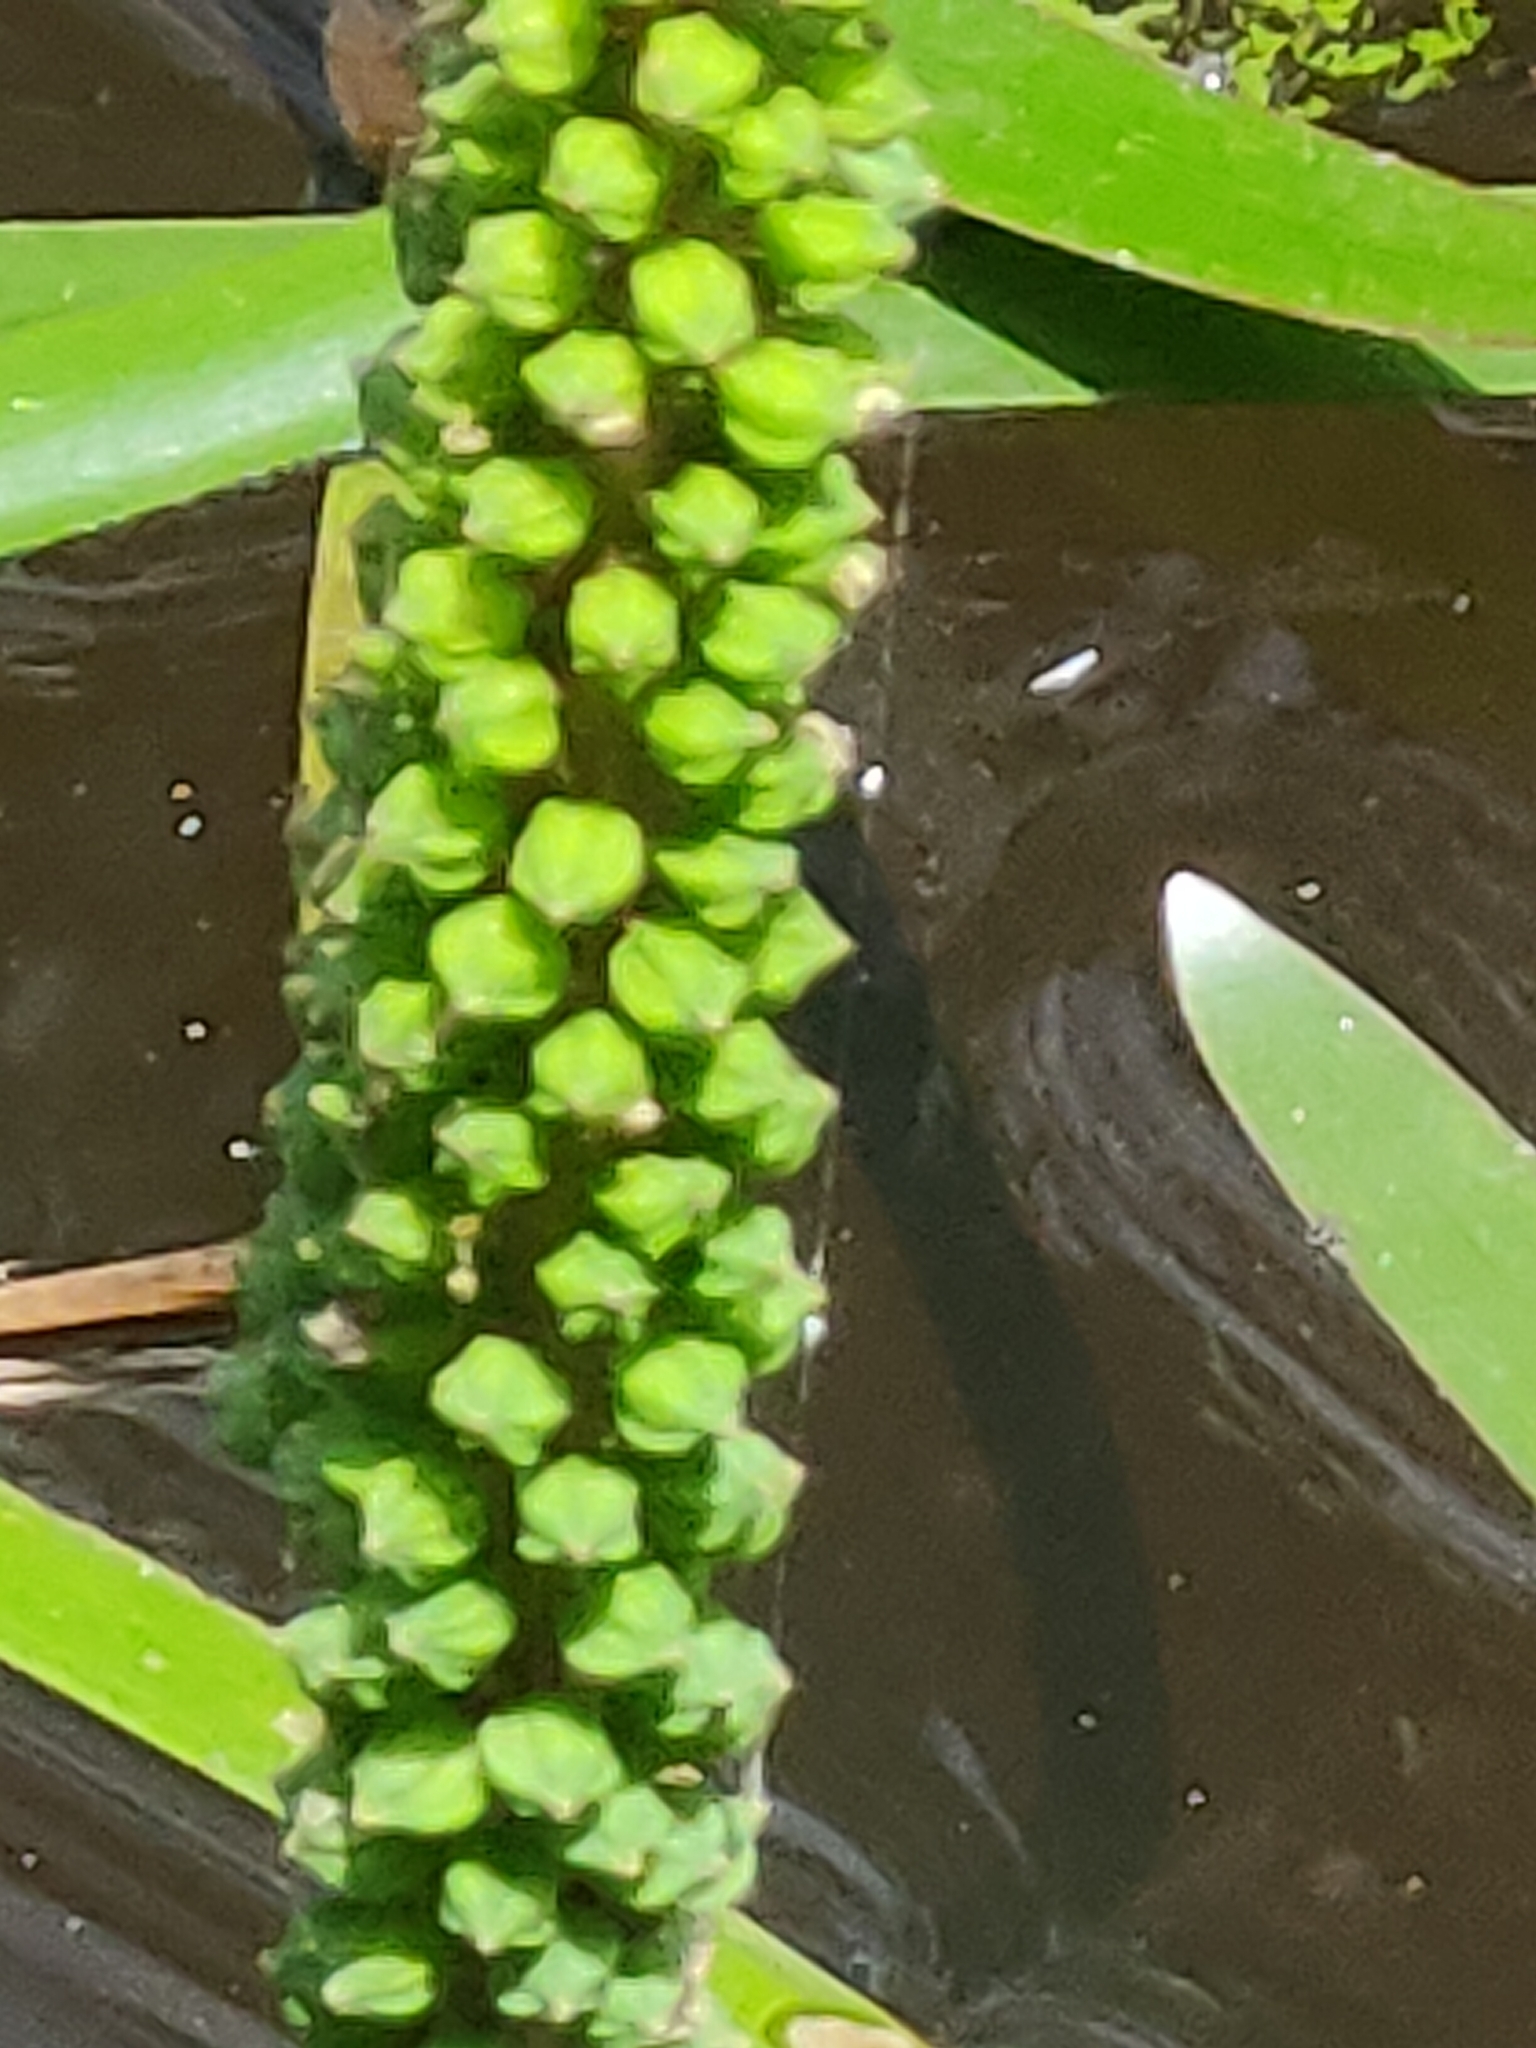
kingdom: Plantae
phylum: Tracheophyta
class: Liliopsida
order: Alismatales
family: Juncaginaceae
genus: Cycnogeton
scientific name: Cycnogeton multifructum
